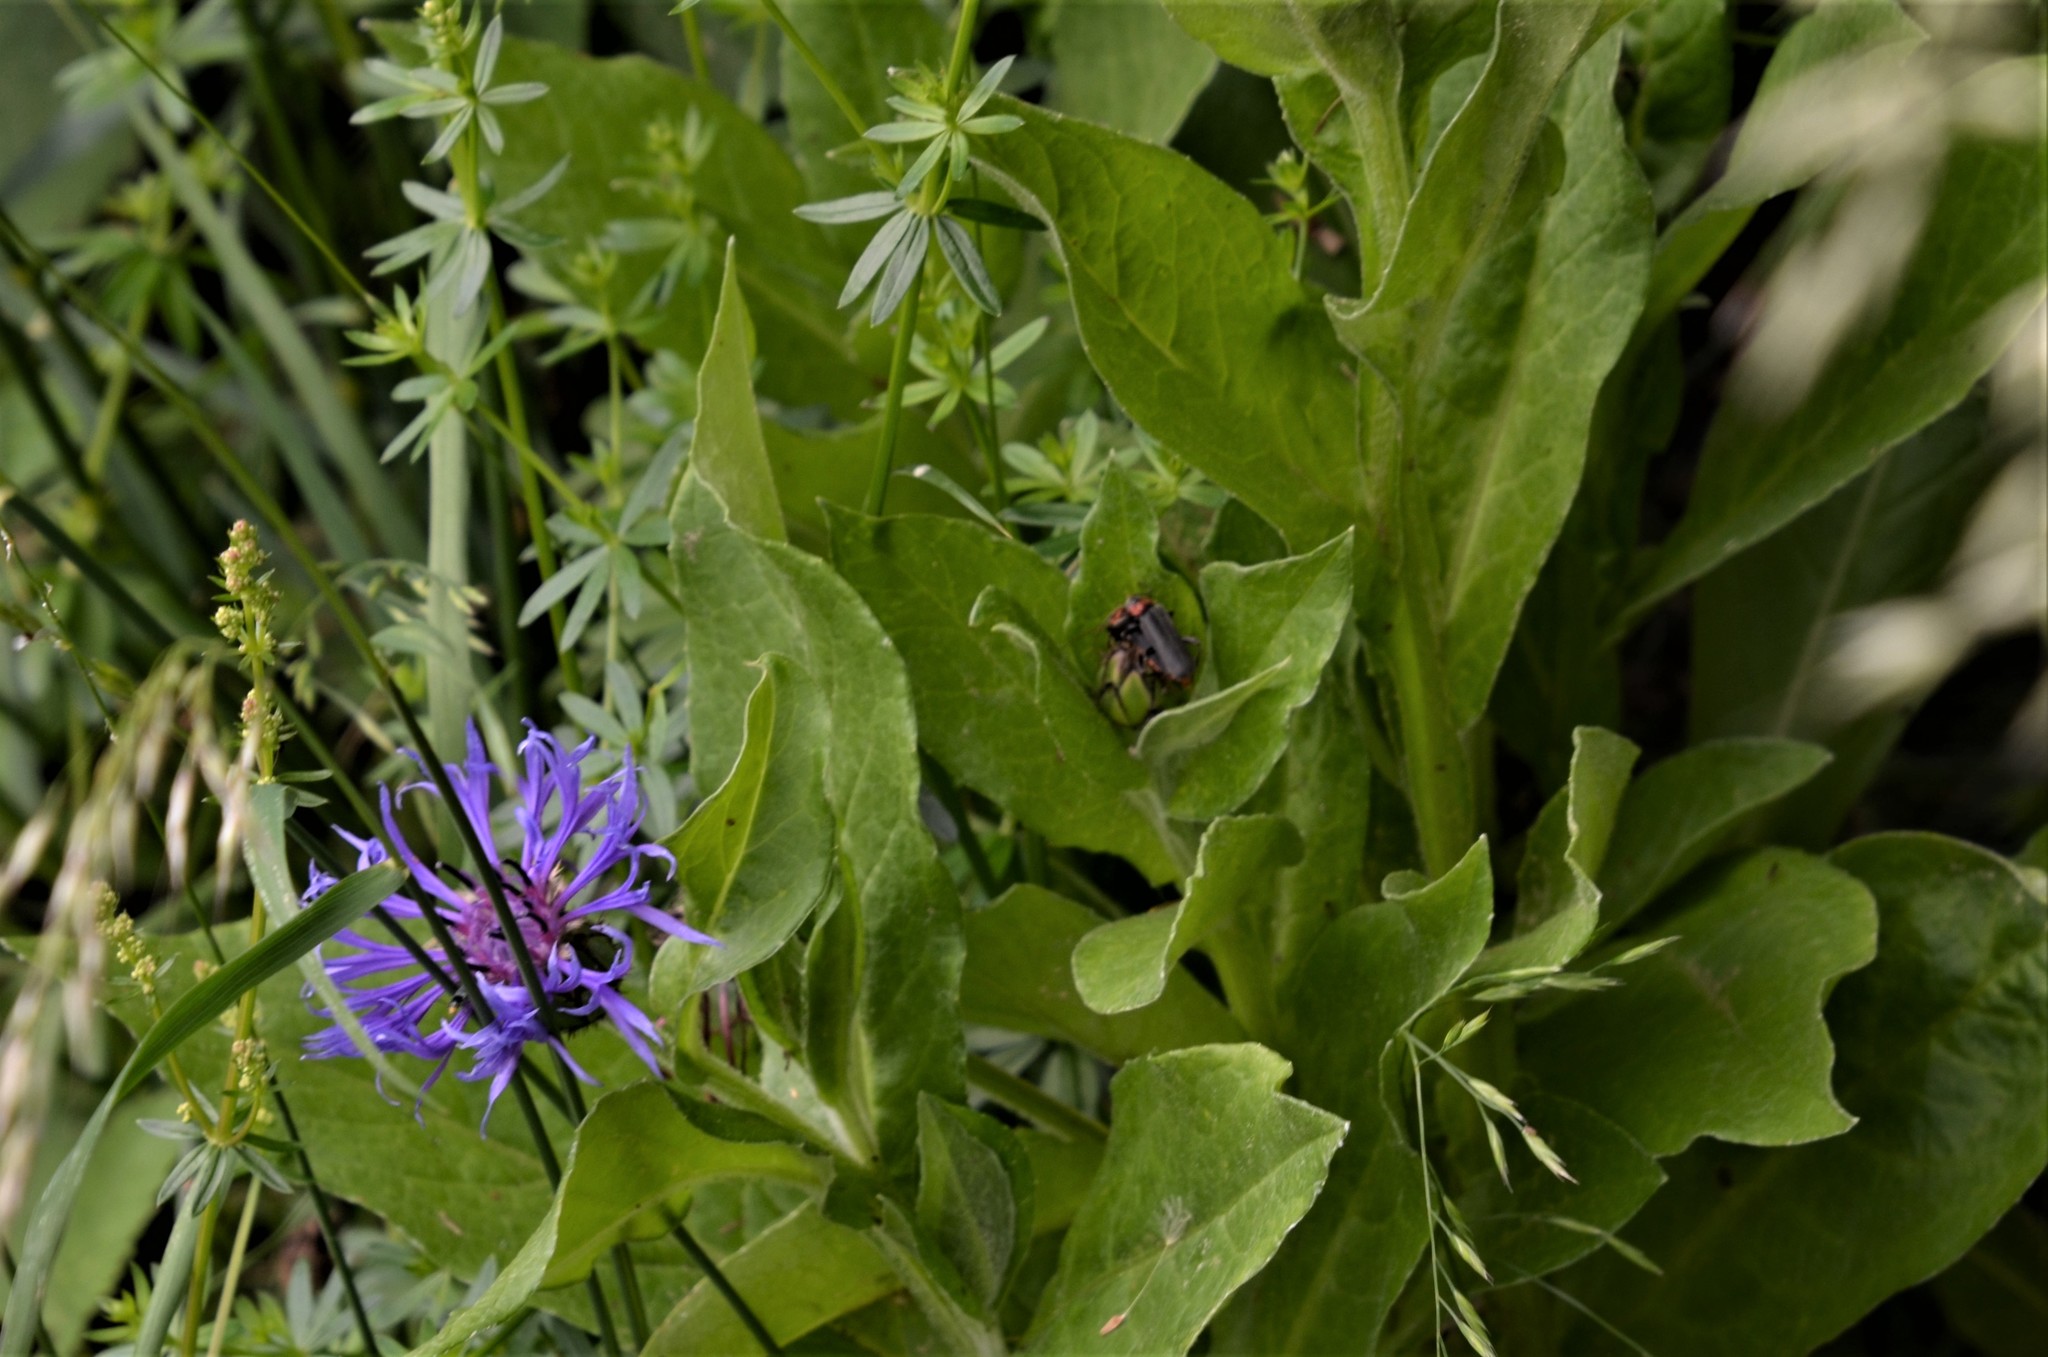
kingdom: Plantae
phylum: Tracheophyta
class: Magnoliopsida
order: Asterales
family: Asteraceae
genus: Centaurea
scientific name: Centaurea montana
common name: Perennial cornflower
